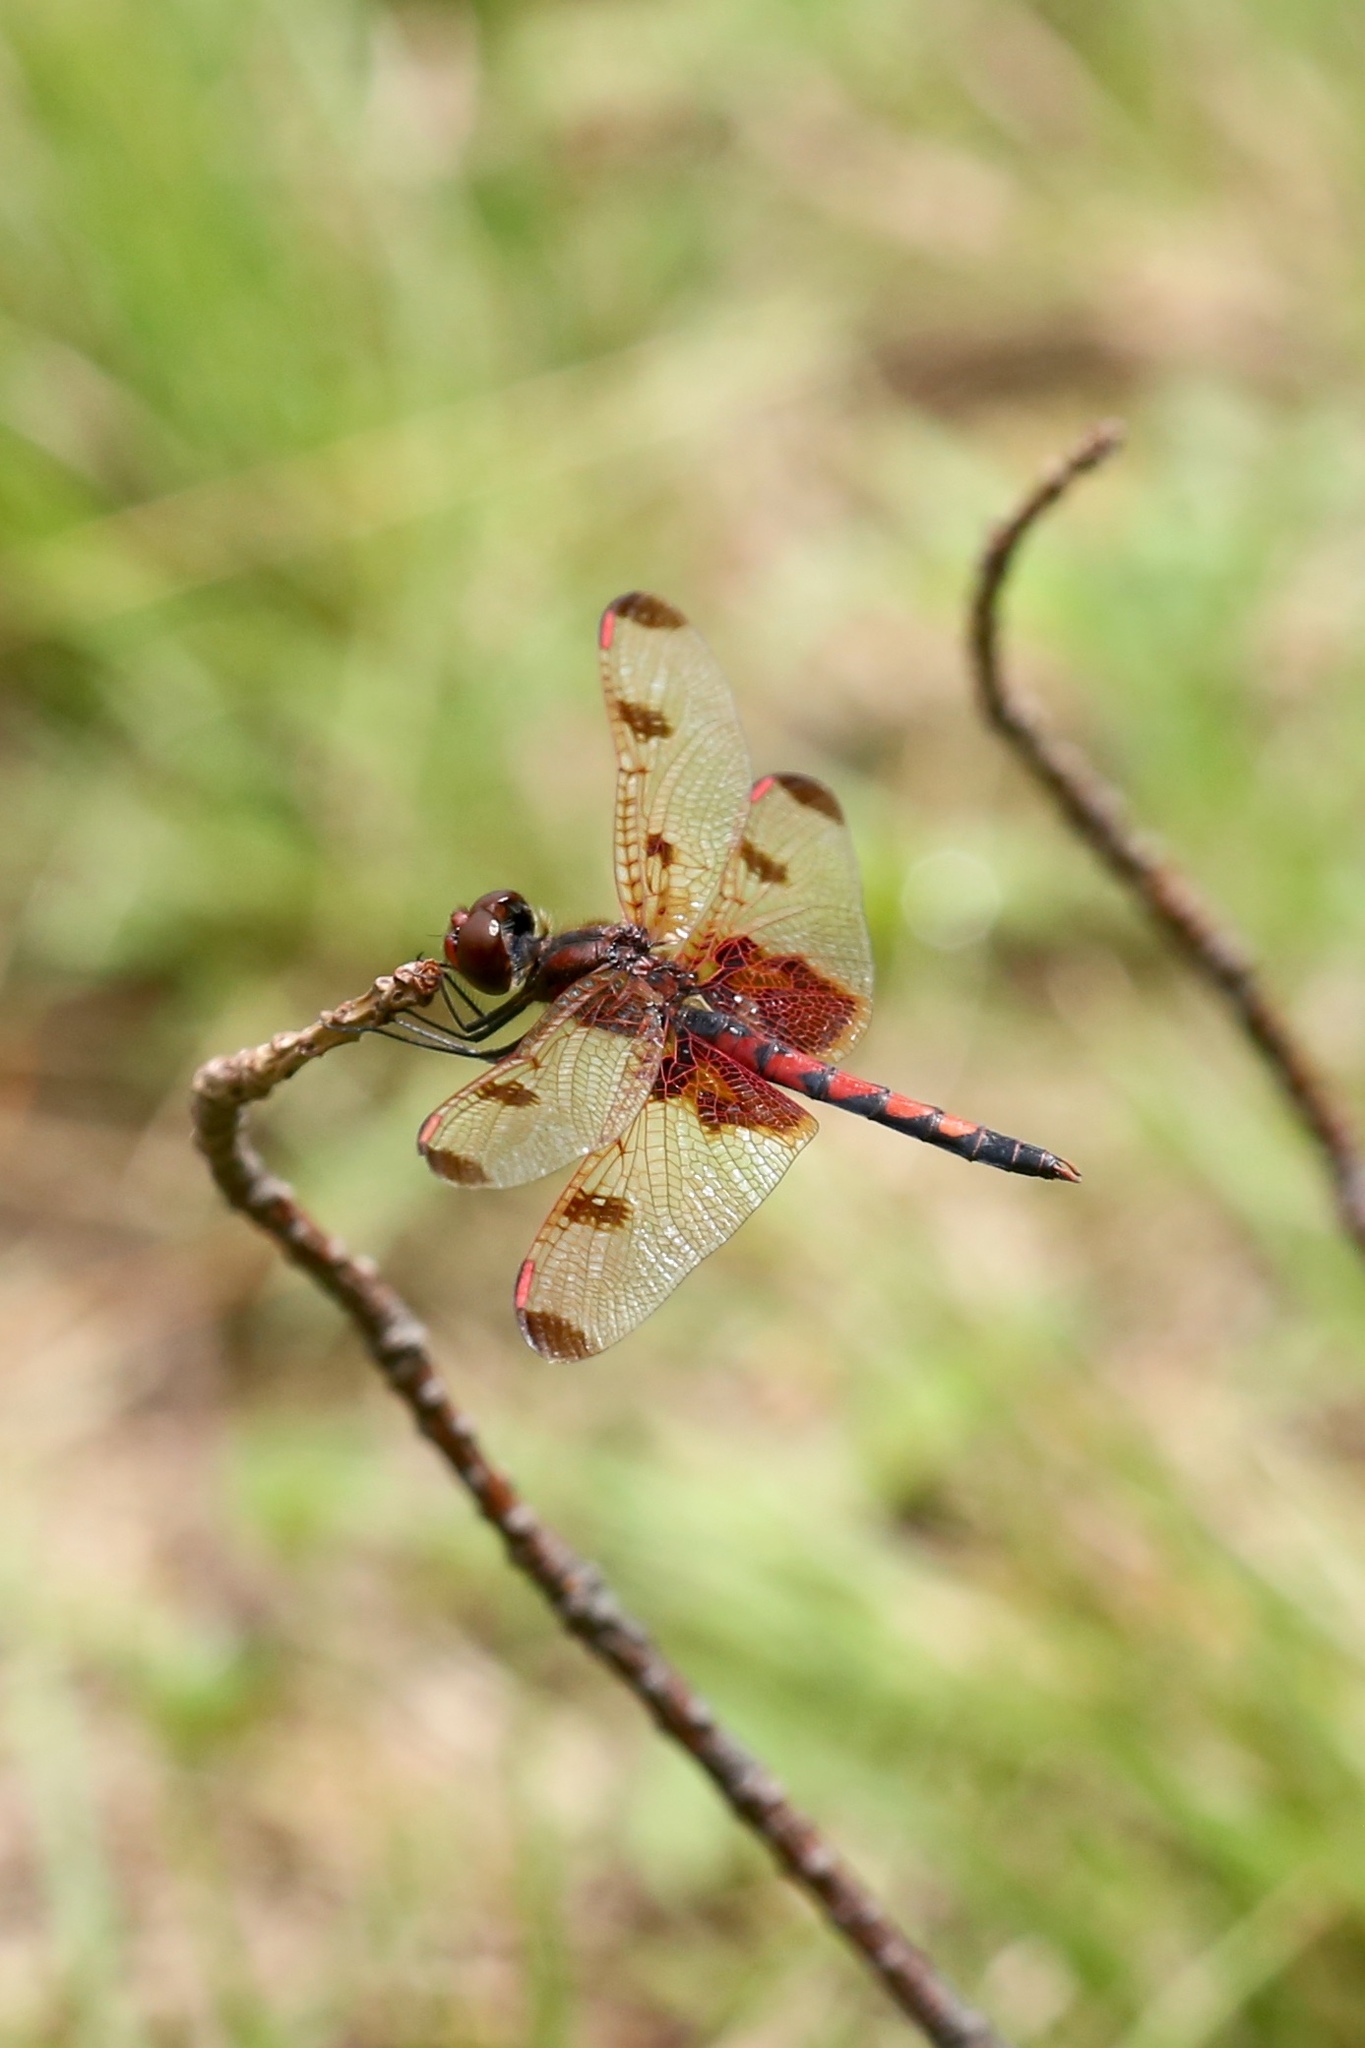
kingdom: Animalia
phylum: Arthropoda
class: Insecta
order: Odonata
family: Libellulidae
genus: Celithemis
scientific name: Celithemis elisa
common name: Calico pennant
